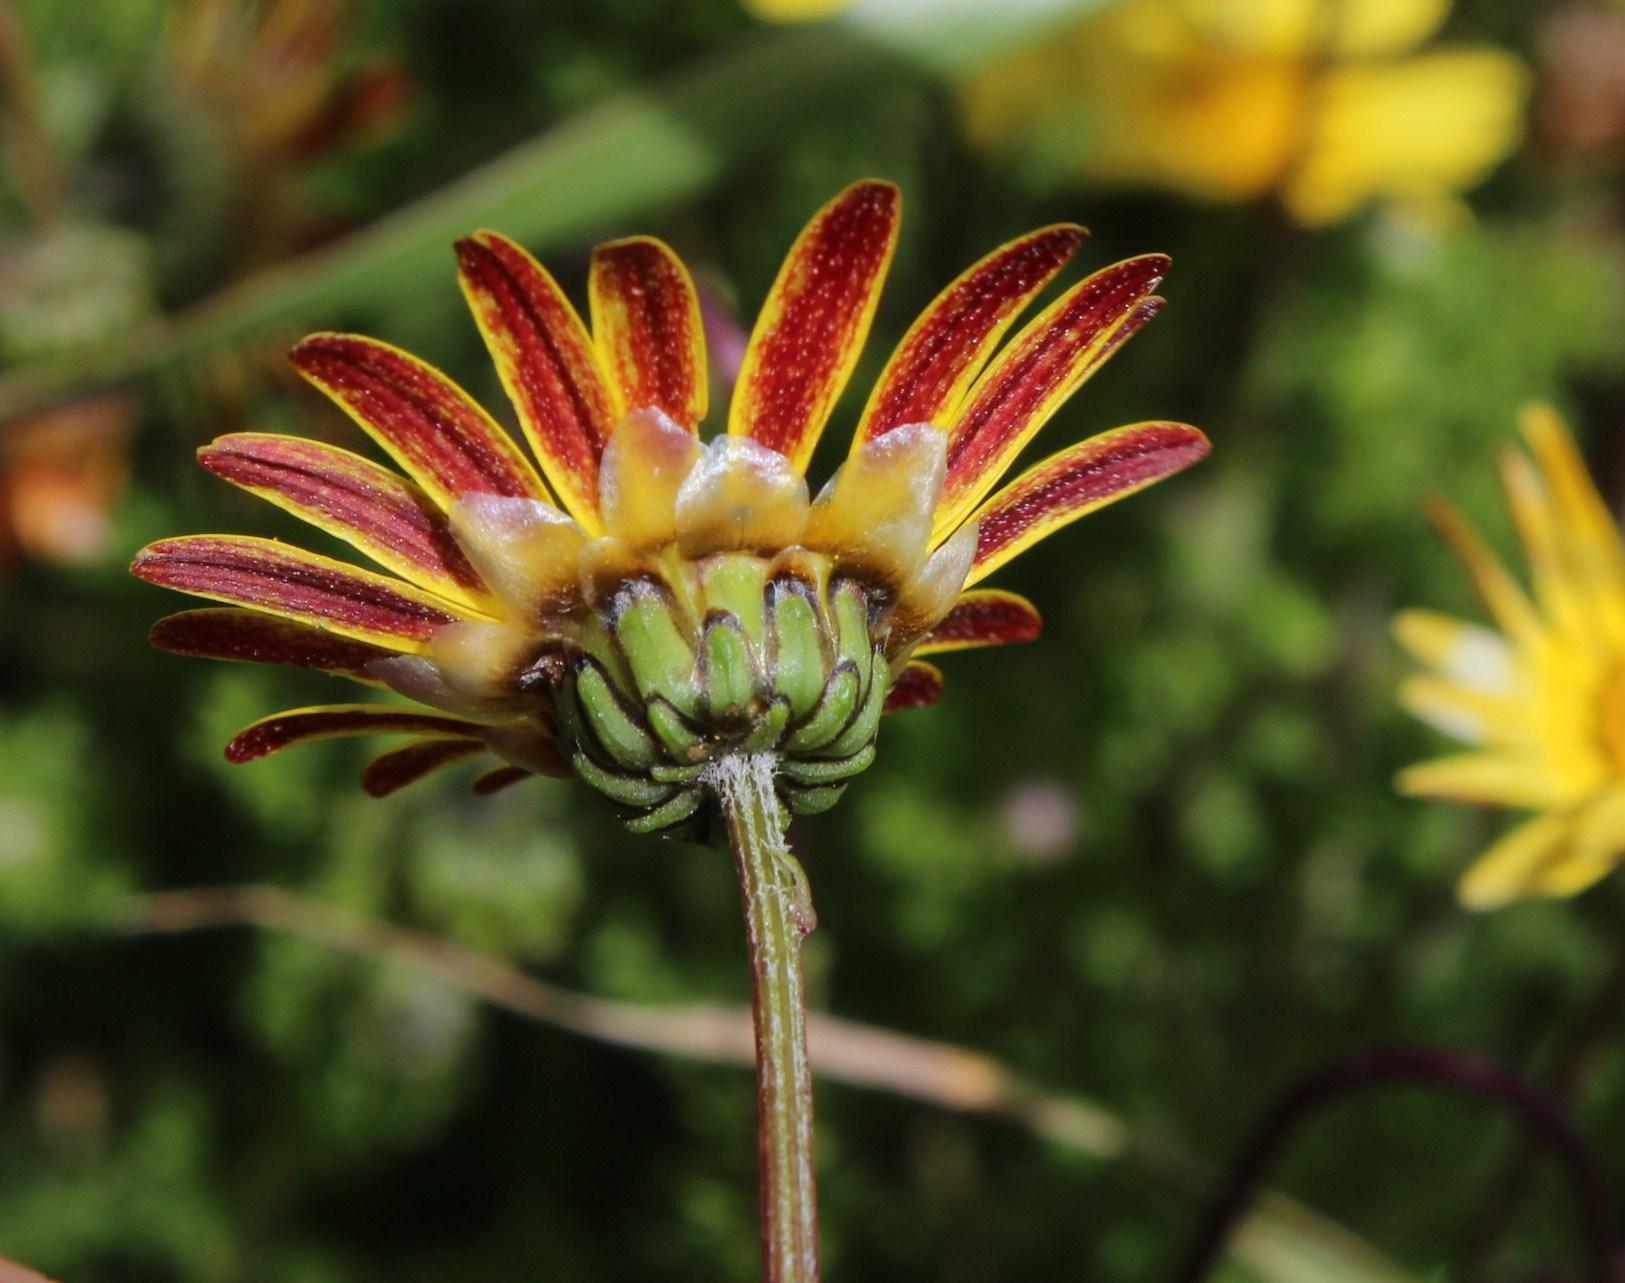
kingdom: Plantae
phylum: Tracheophyta
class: Magnoliopsida
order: Asterales
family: Asteraceae
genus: Ursinia
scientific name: Ursinia paleacea
